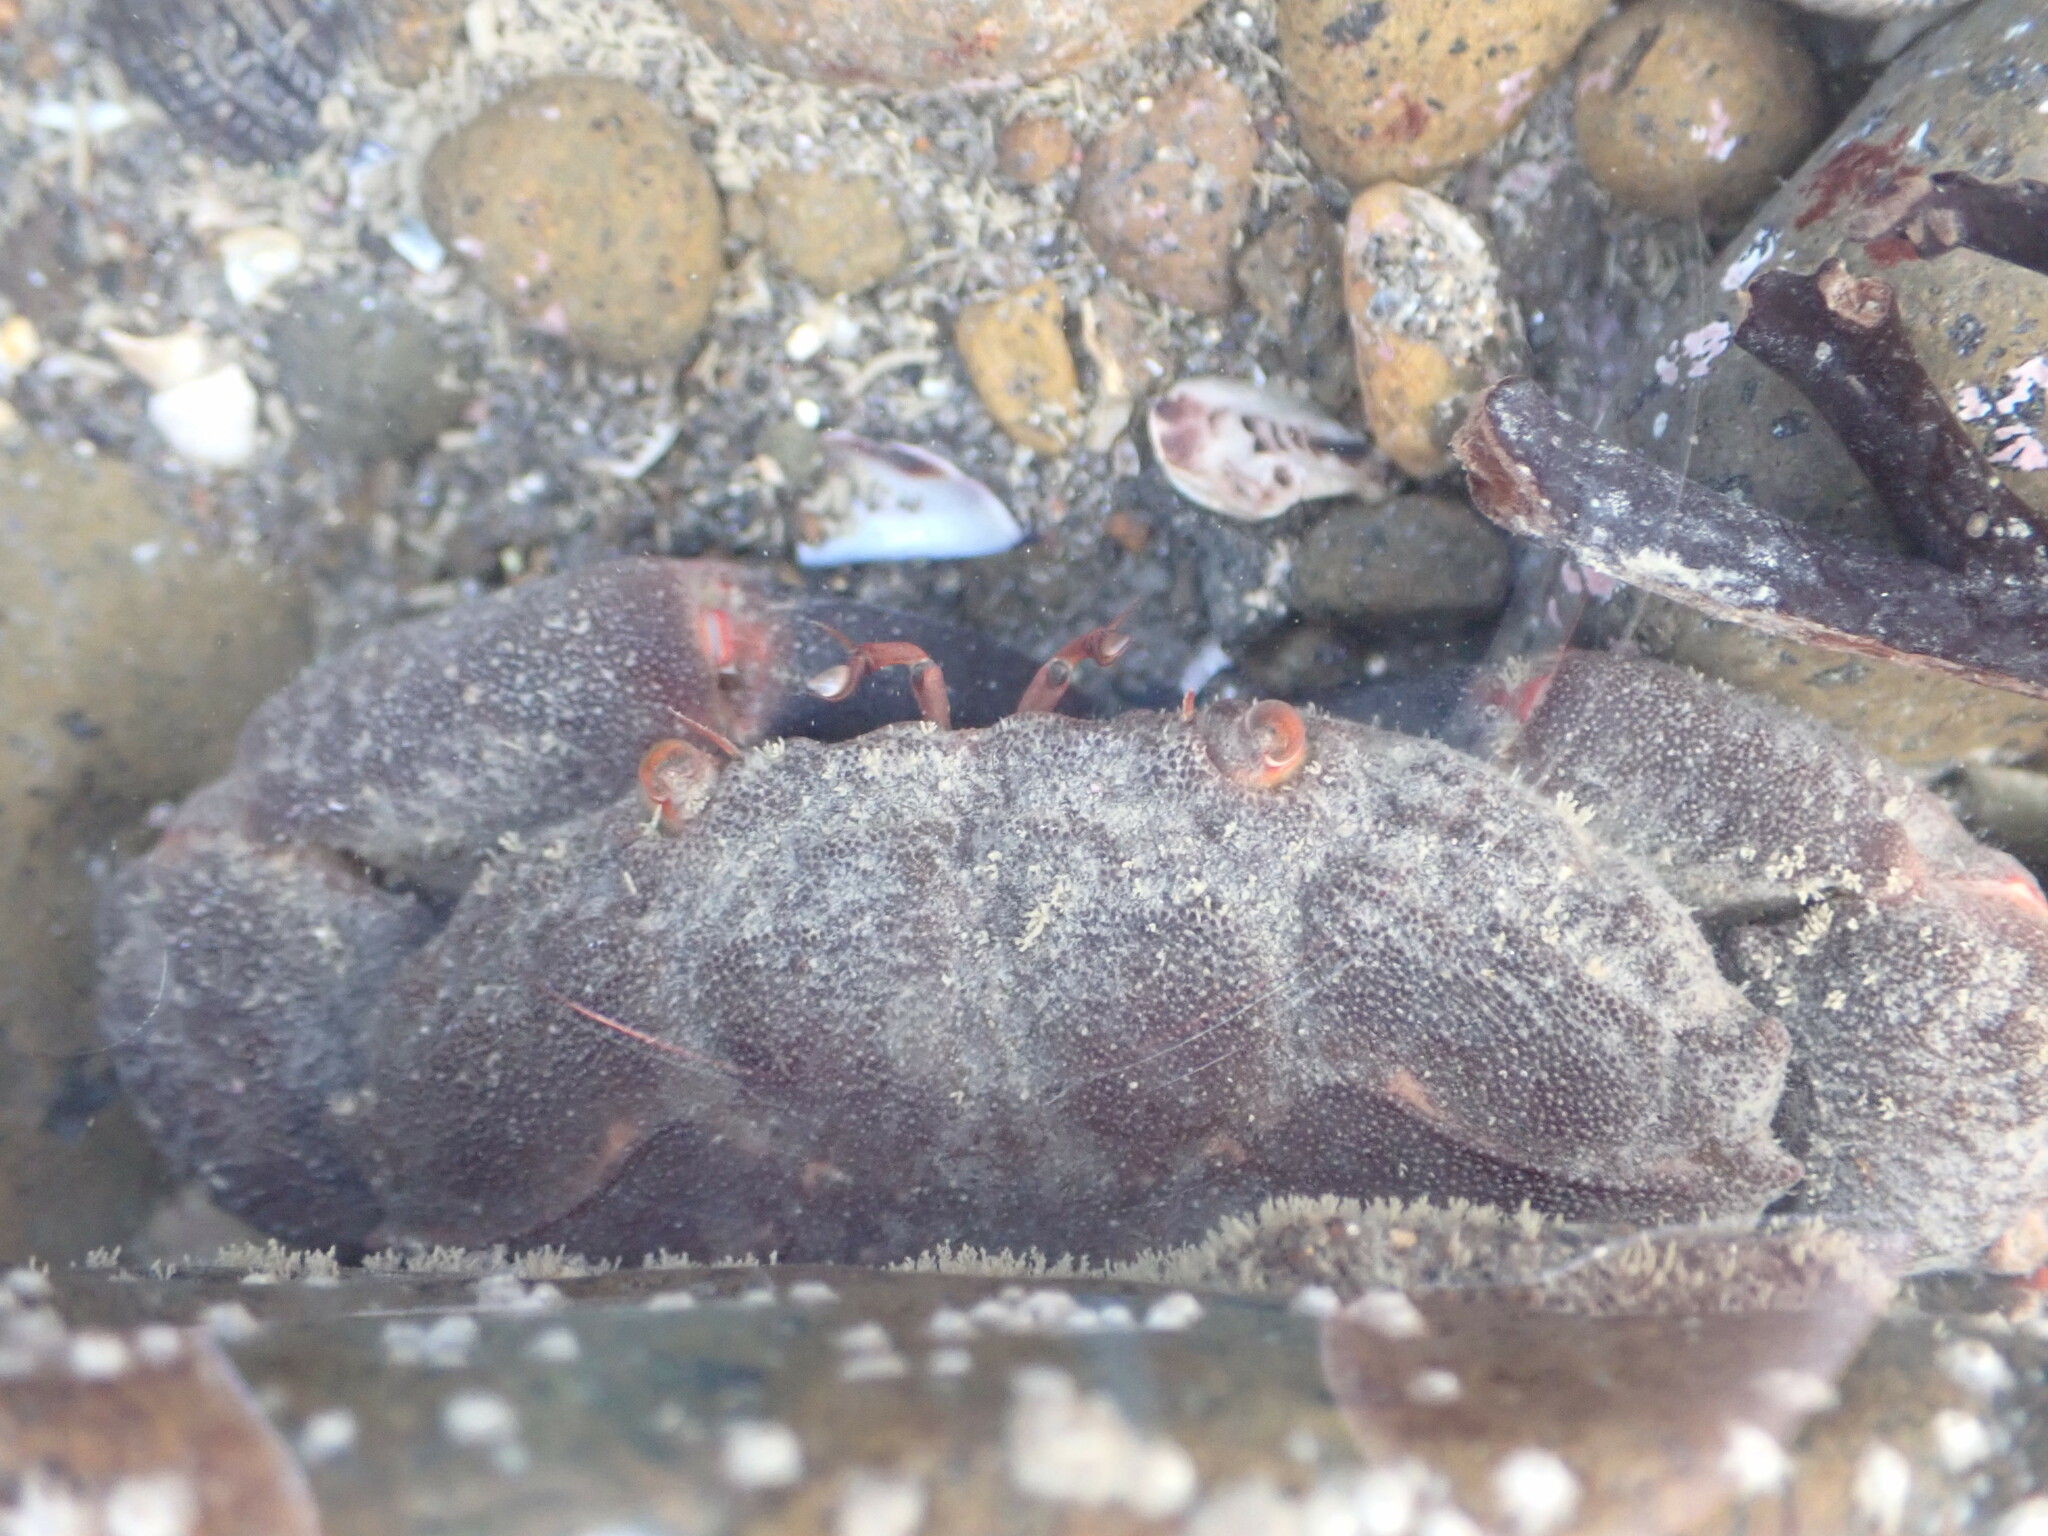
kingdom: Animalia
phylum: Arthropoda
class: Malacostraca
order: Decapoda
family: Oziidae
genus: Ozius
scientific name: Ozius deplanatus
